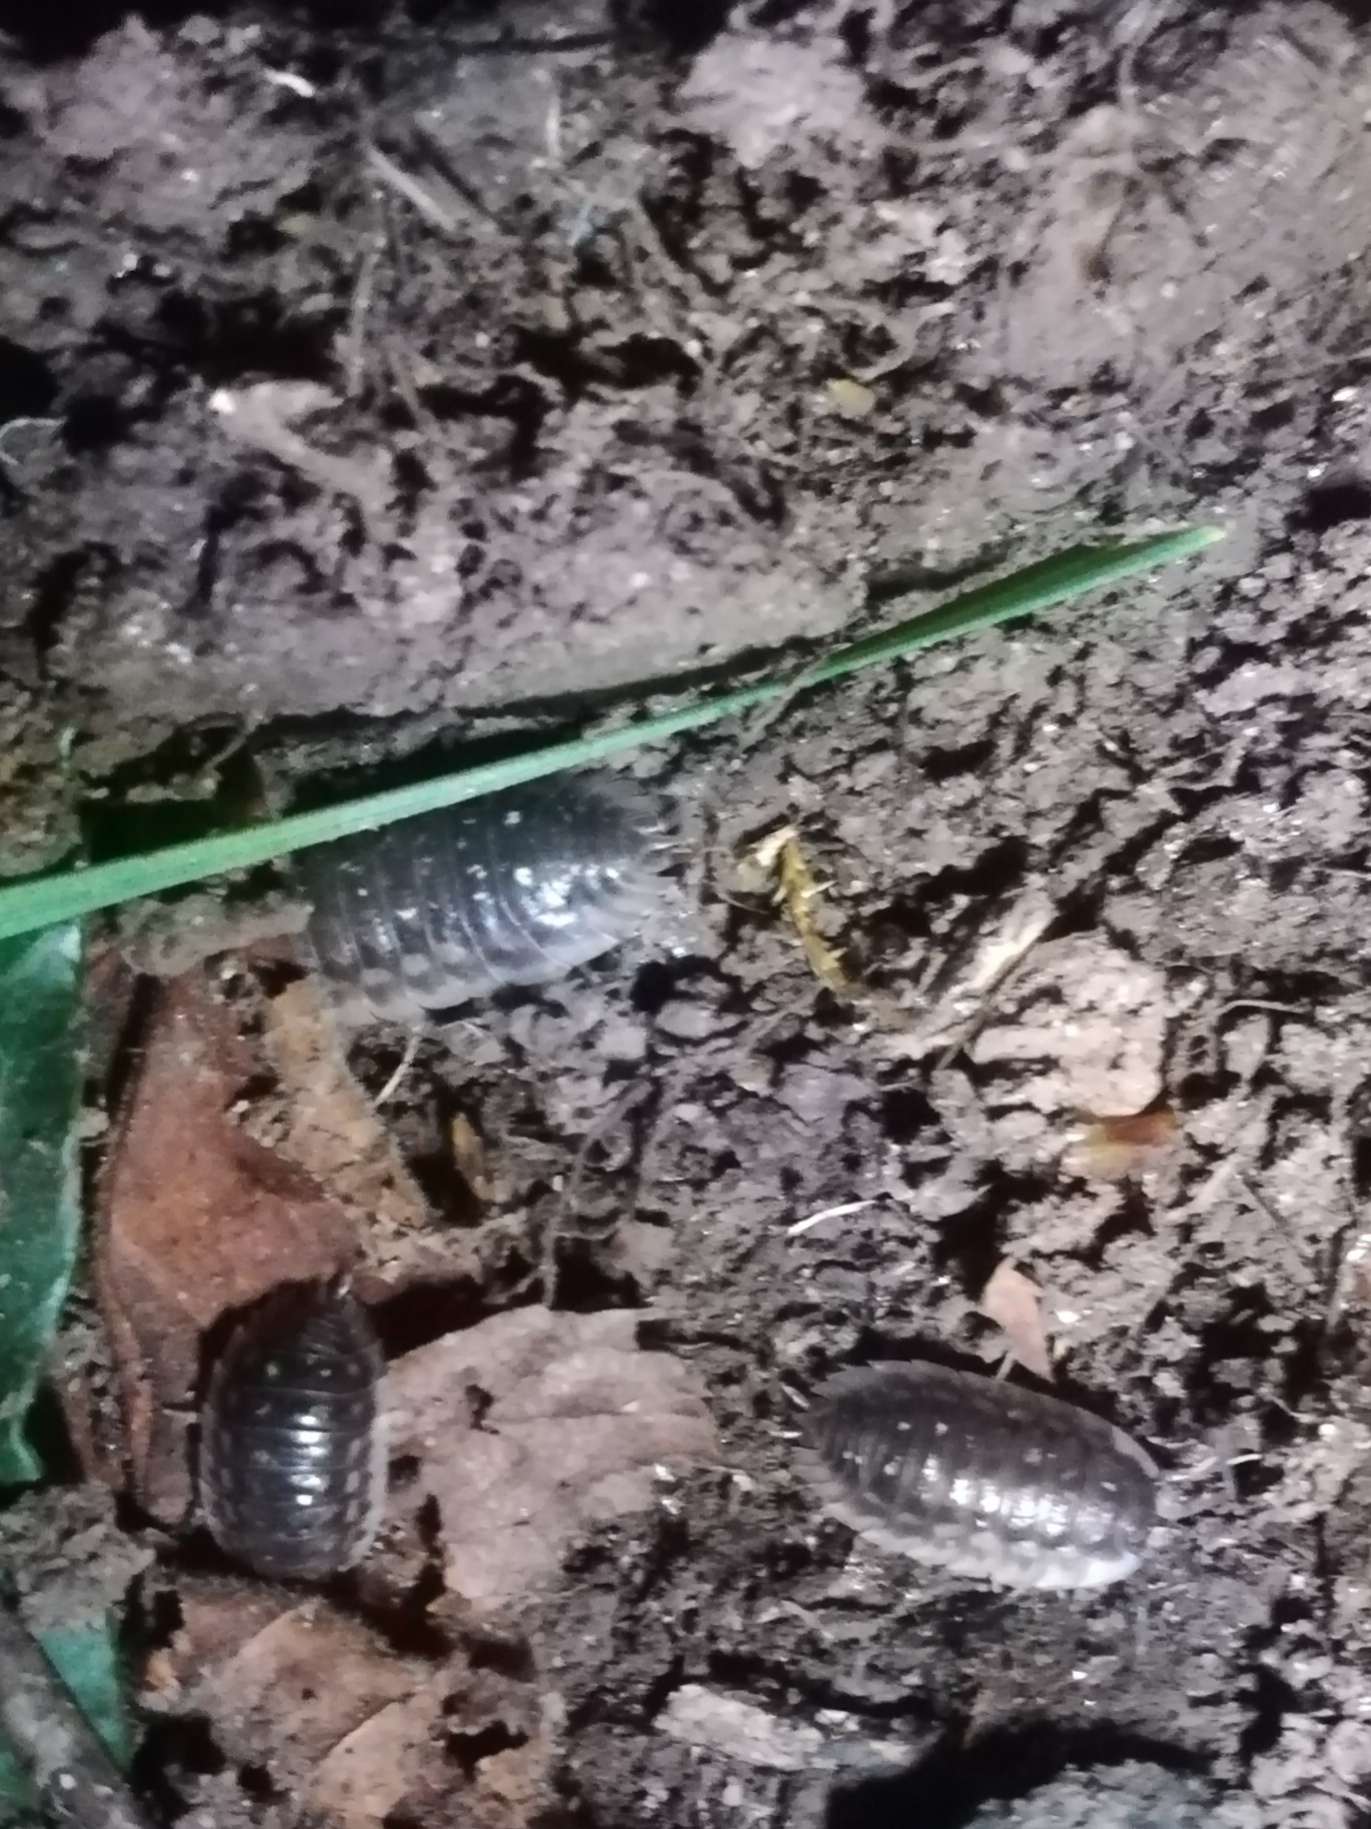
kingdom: Animalia
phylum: Arthropoda
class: Malacostraca
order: Isopoda
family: Oniscidae
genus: Oniscus
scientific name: Oniscus asellus
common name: Common shiny woodlouse
